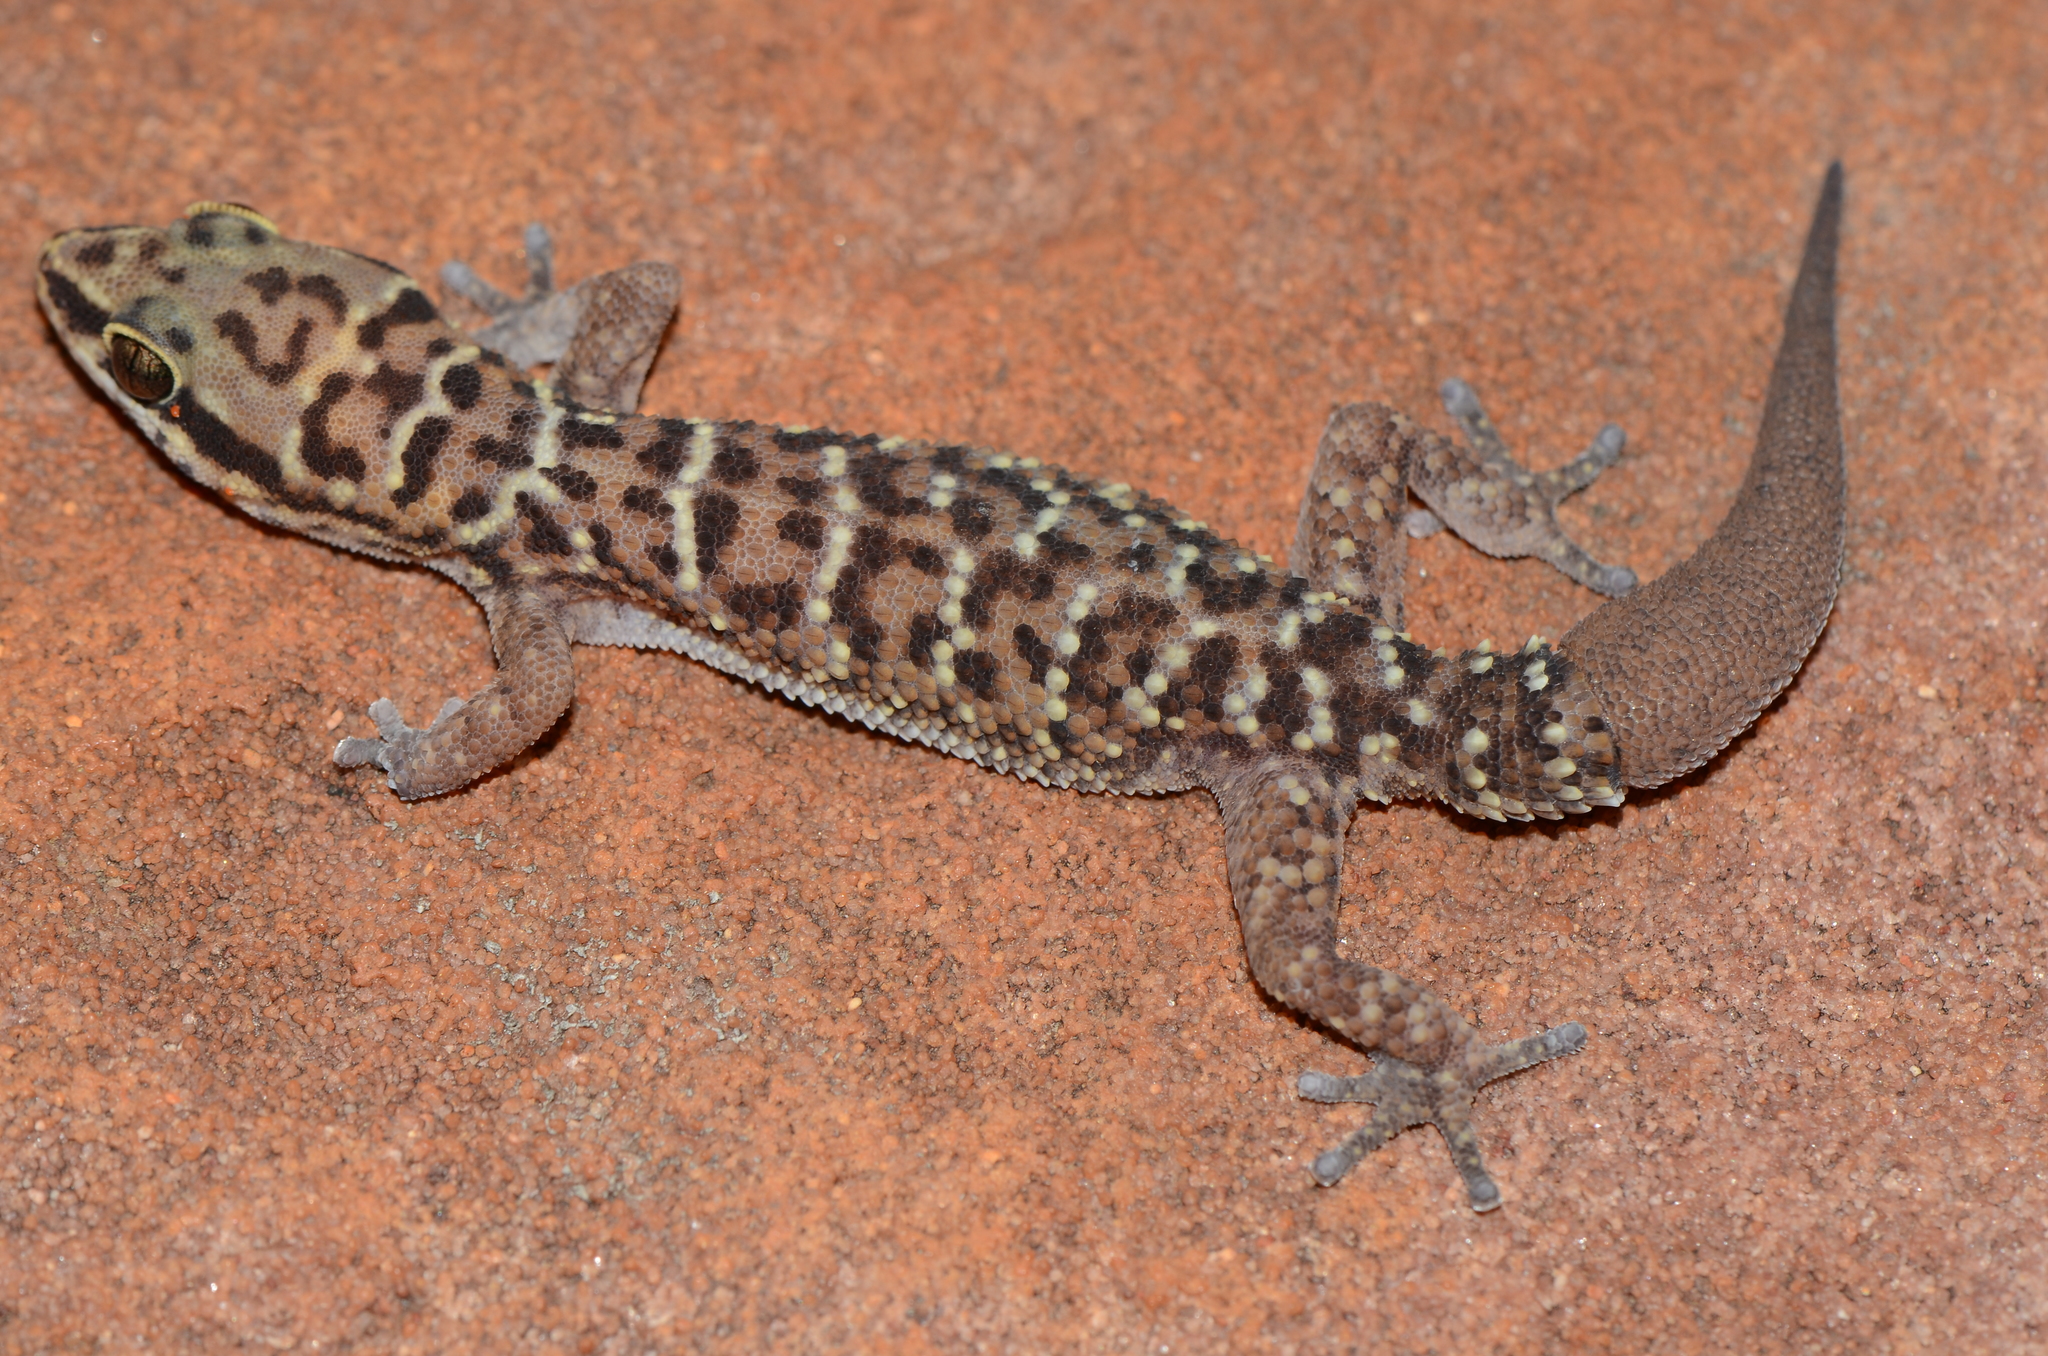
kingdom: Animalia
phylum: Chordata
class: Squamata
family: Gekkonidae
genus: Pachydactylus
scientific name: Pachydactylus affinis
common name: Transvaal gecko
